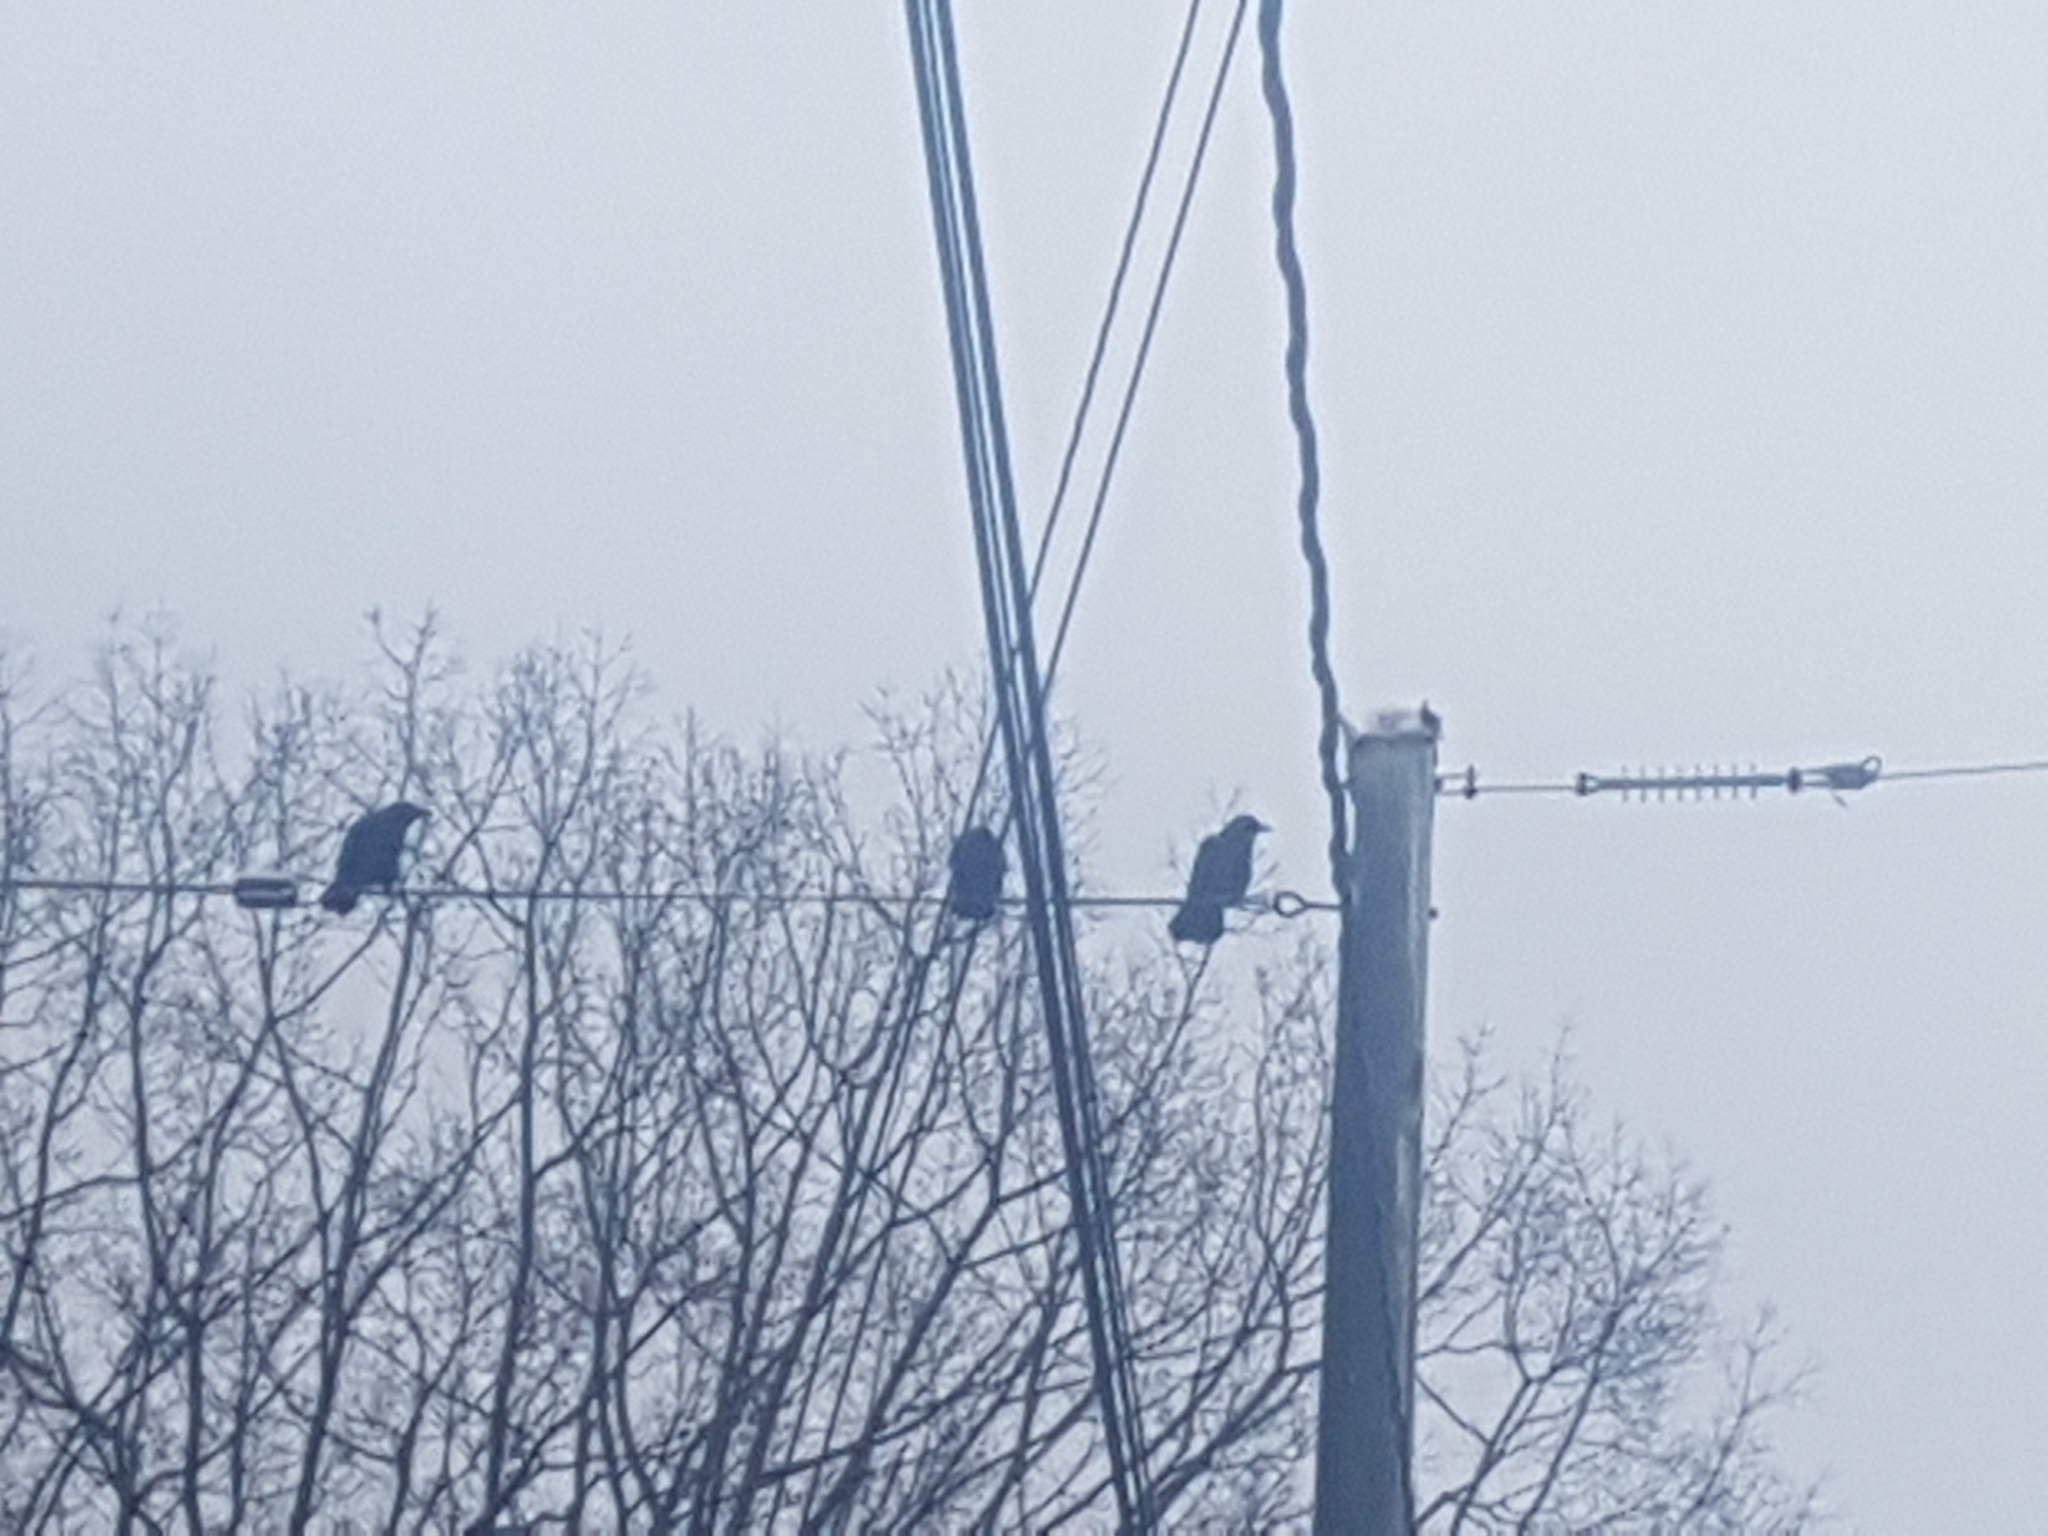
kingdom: Animalia
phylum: Chordata
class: Aves
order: Passeriformes
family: Corvidae
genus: Corvus
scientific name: Corvus brachyrhynchos
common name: American crow
